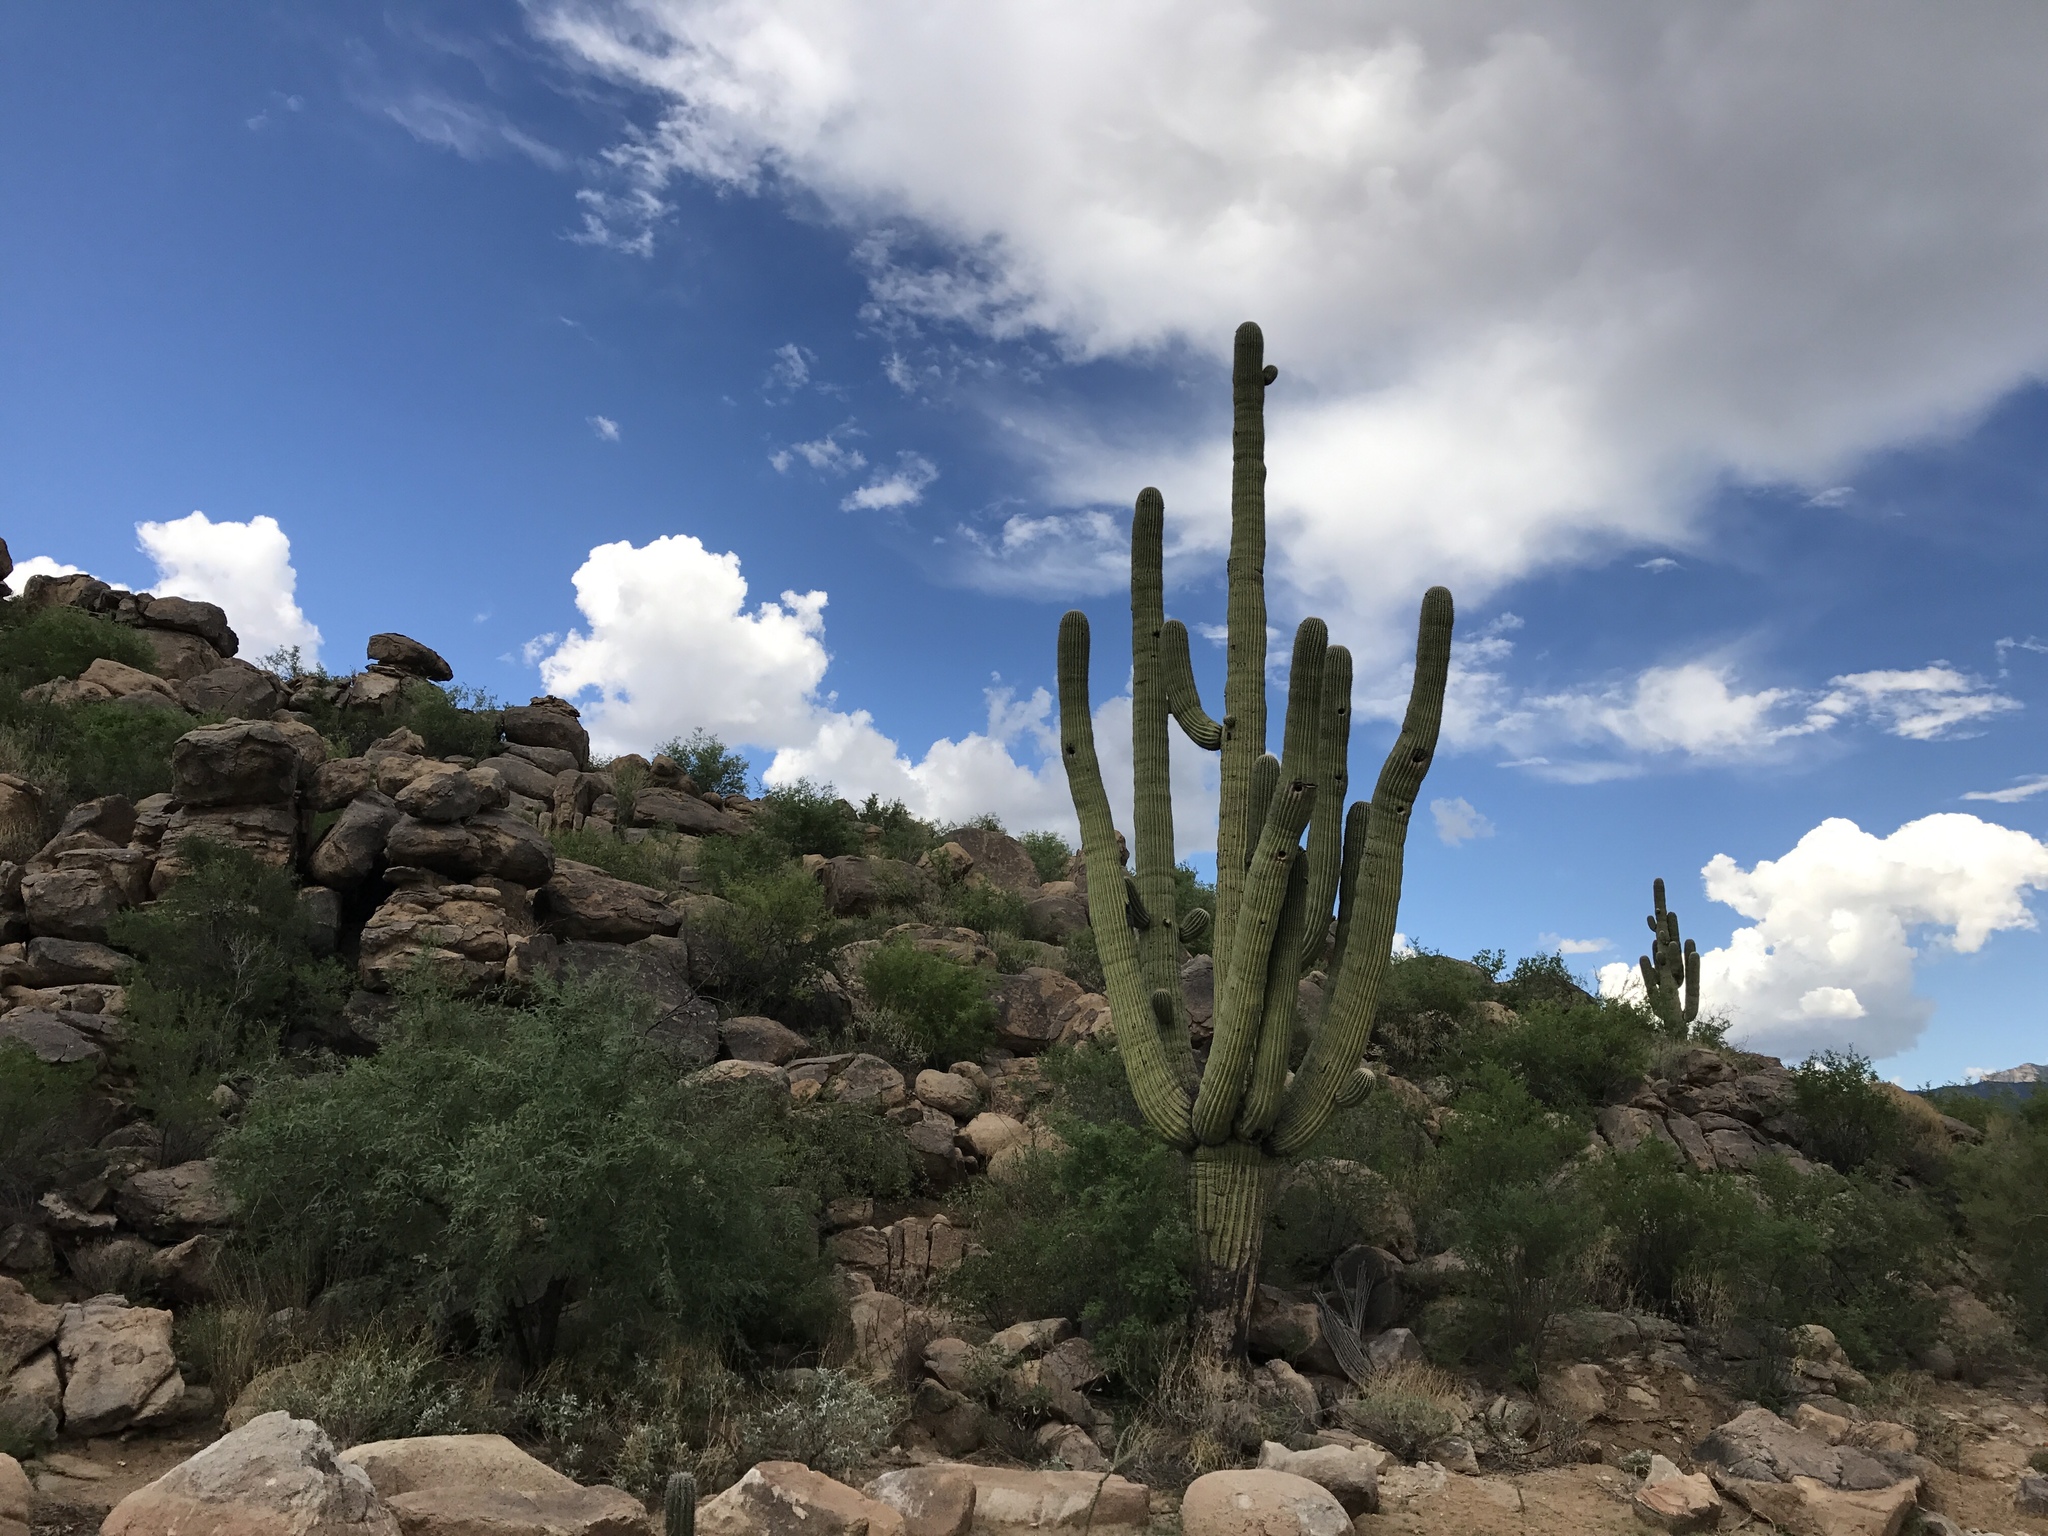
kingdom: Plantae
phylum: Tracheophyta
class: Magnoliopsida
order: Caryophyllales
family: Cactaceae
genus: Carnegiea
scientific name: Carnegiea gigantea
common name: Saguaro
